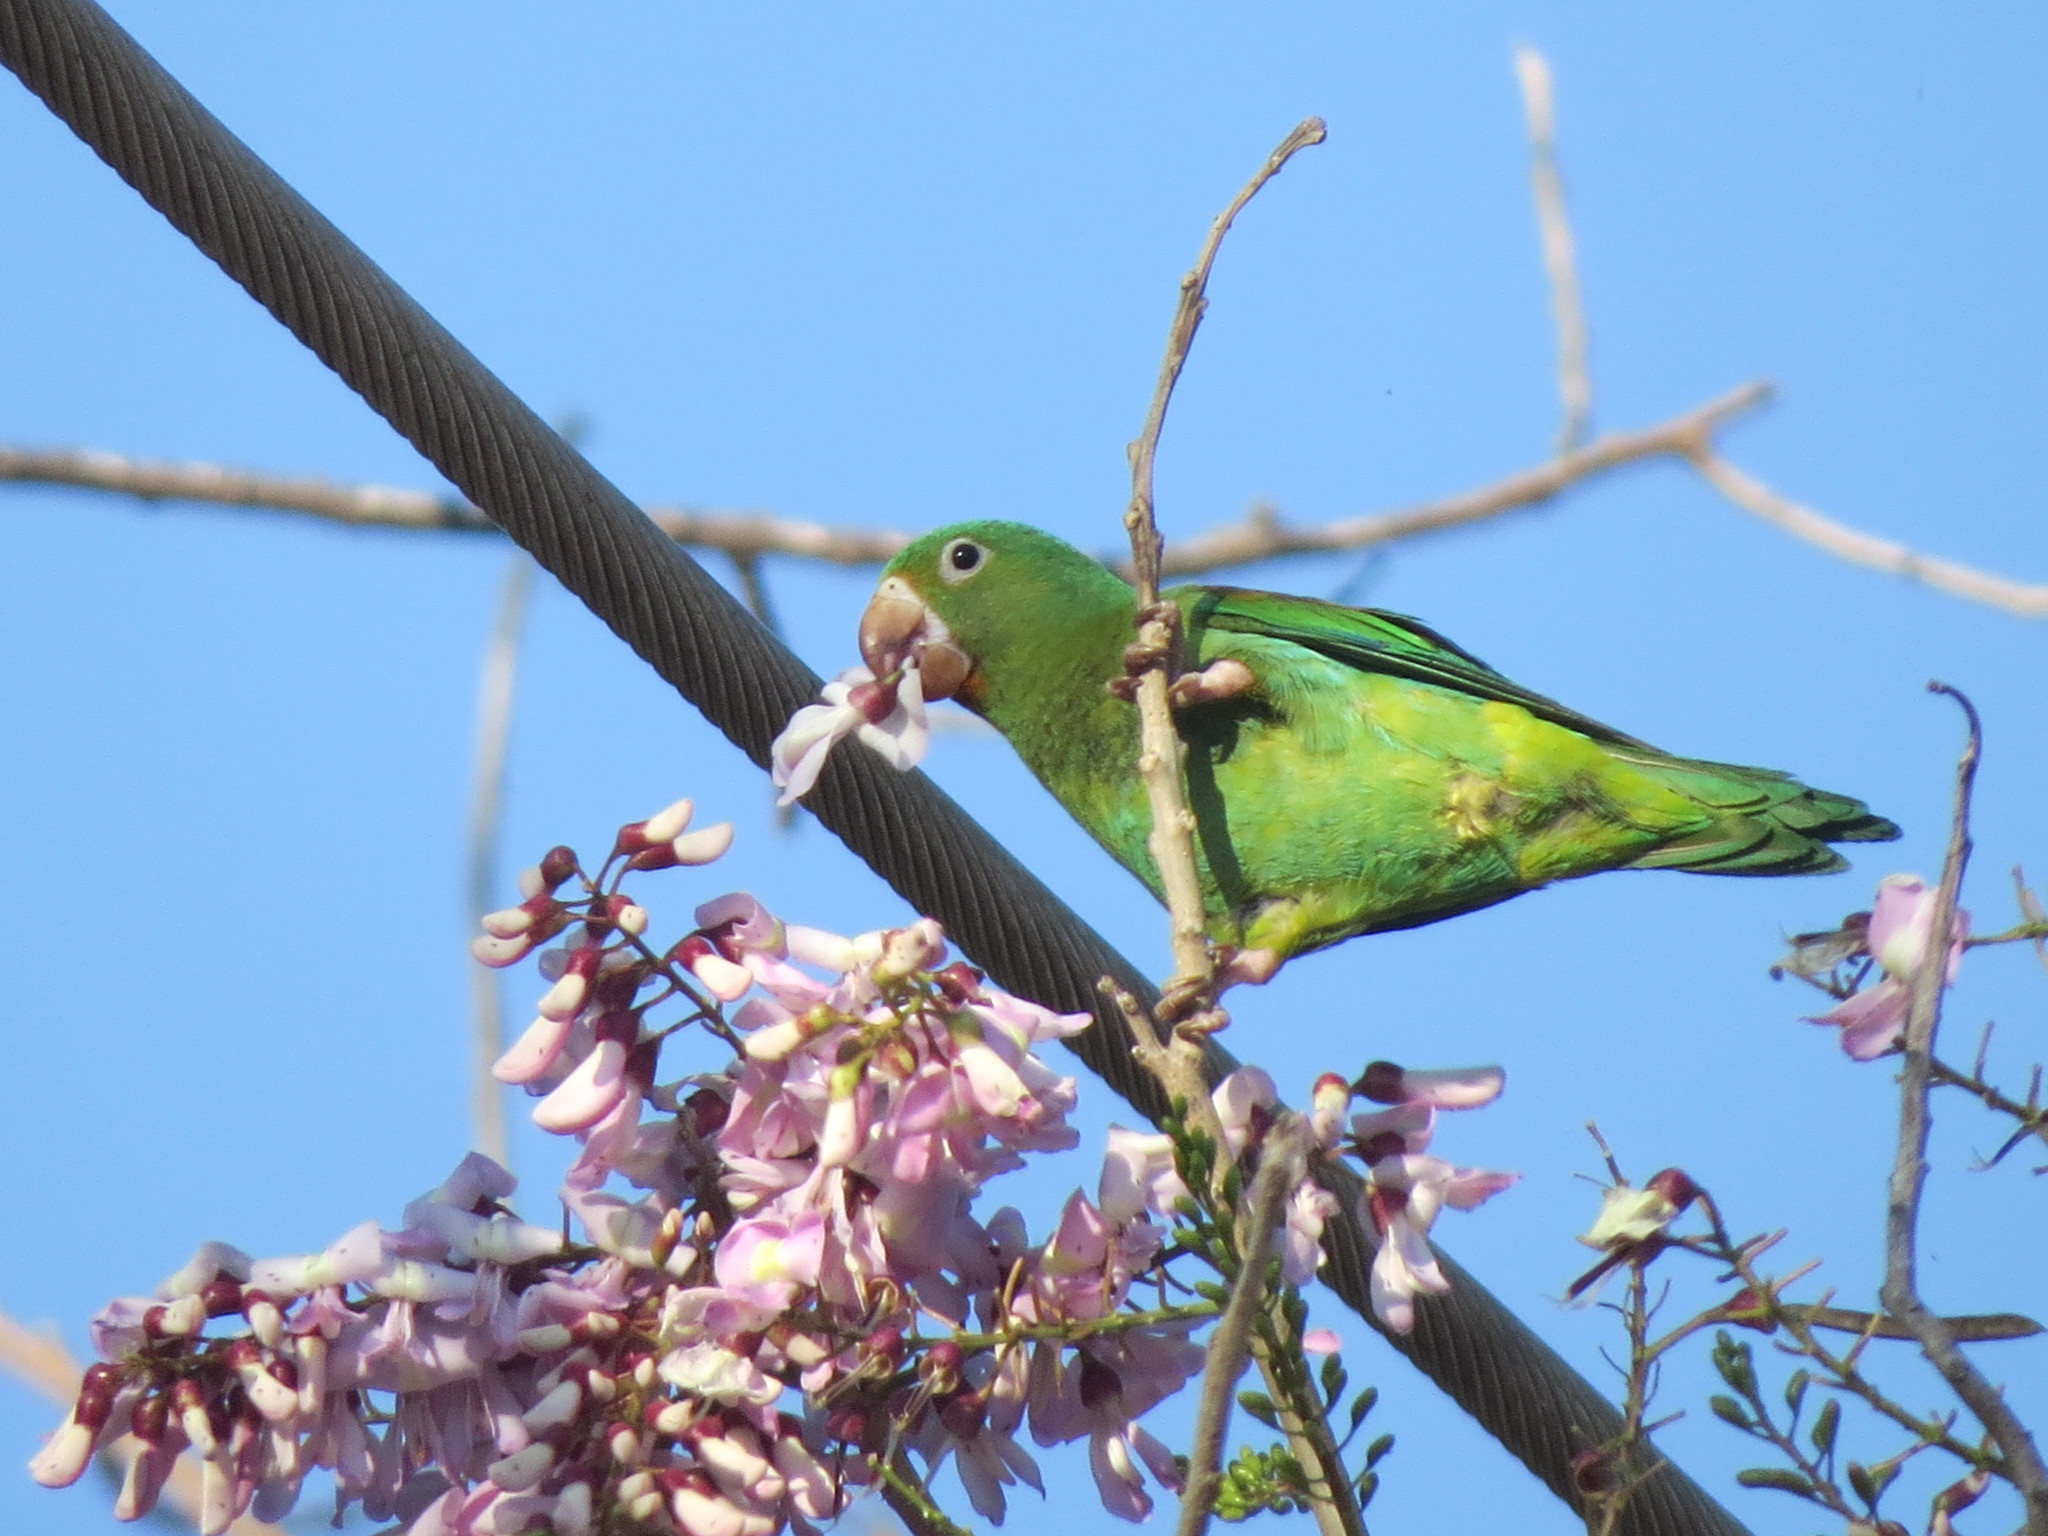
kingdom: Animalia
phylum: Chordata
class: Aves
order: Psittaciformes
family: Psittacidae
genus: Brotogeris
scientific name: Brotogeris jugularis
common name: Orange-chinned parakeet
